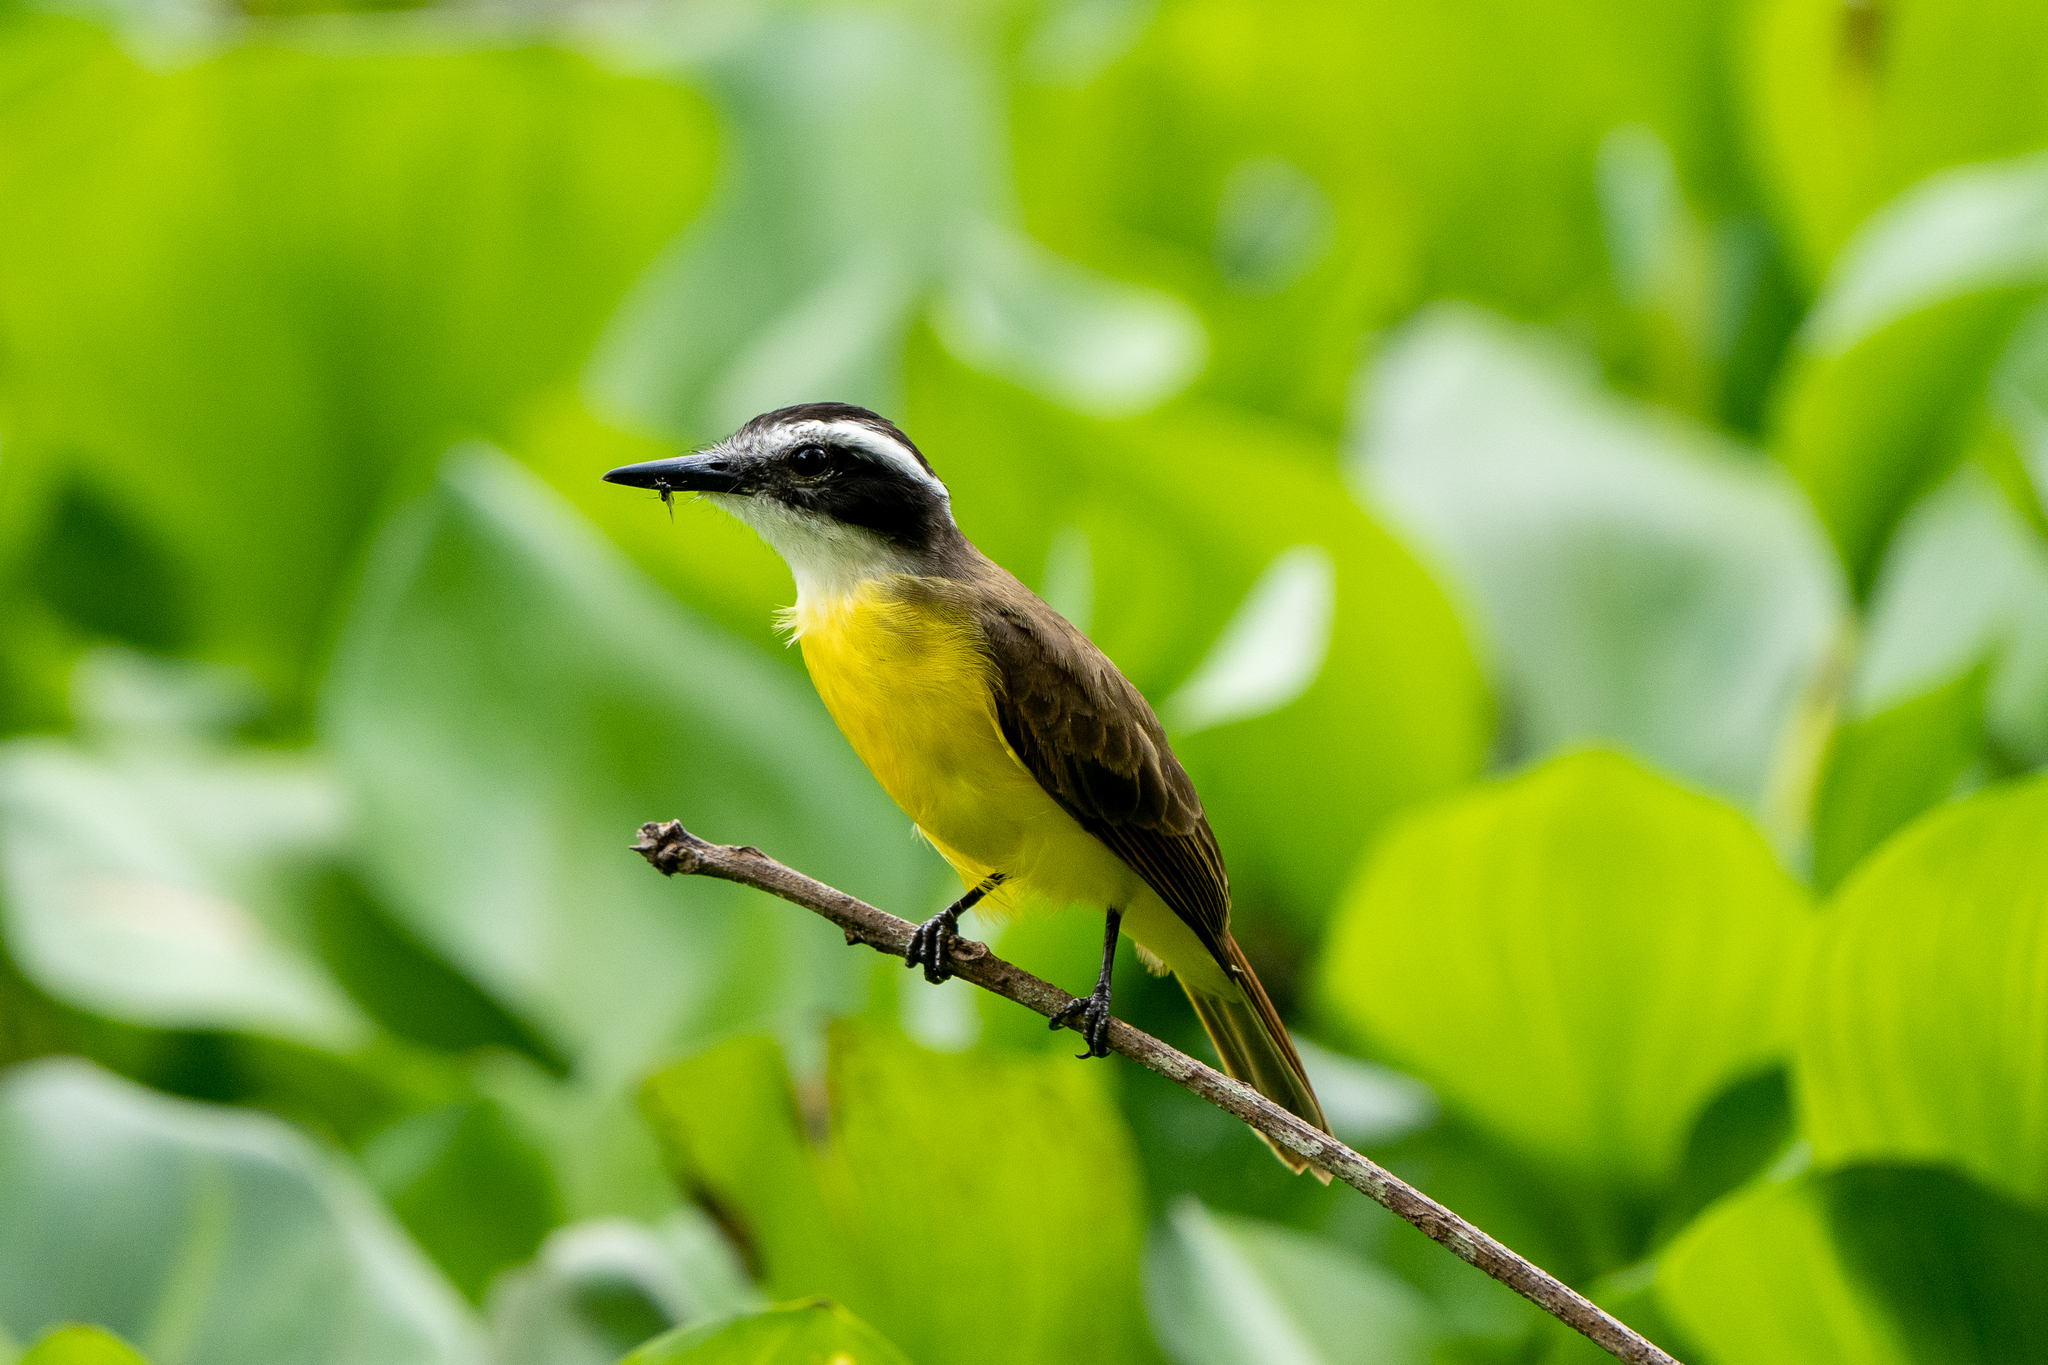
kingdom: Animalia
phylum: Chordata
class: Aves
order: Passeriformes
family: Tyrannidae
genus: Pitangus
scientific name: Pitangus lictor
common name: Lesser kiskadee
